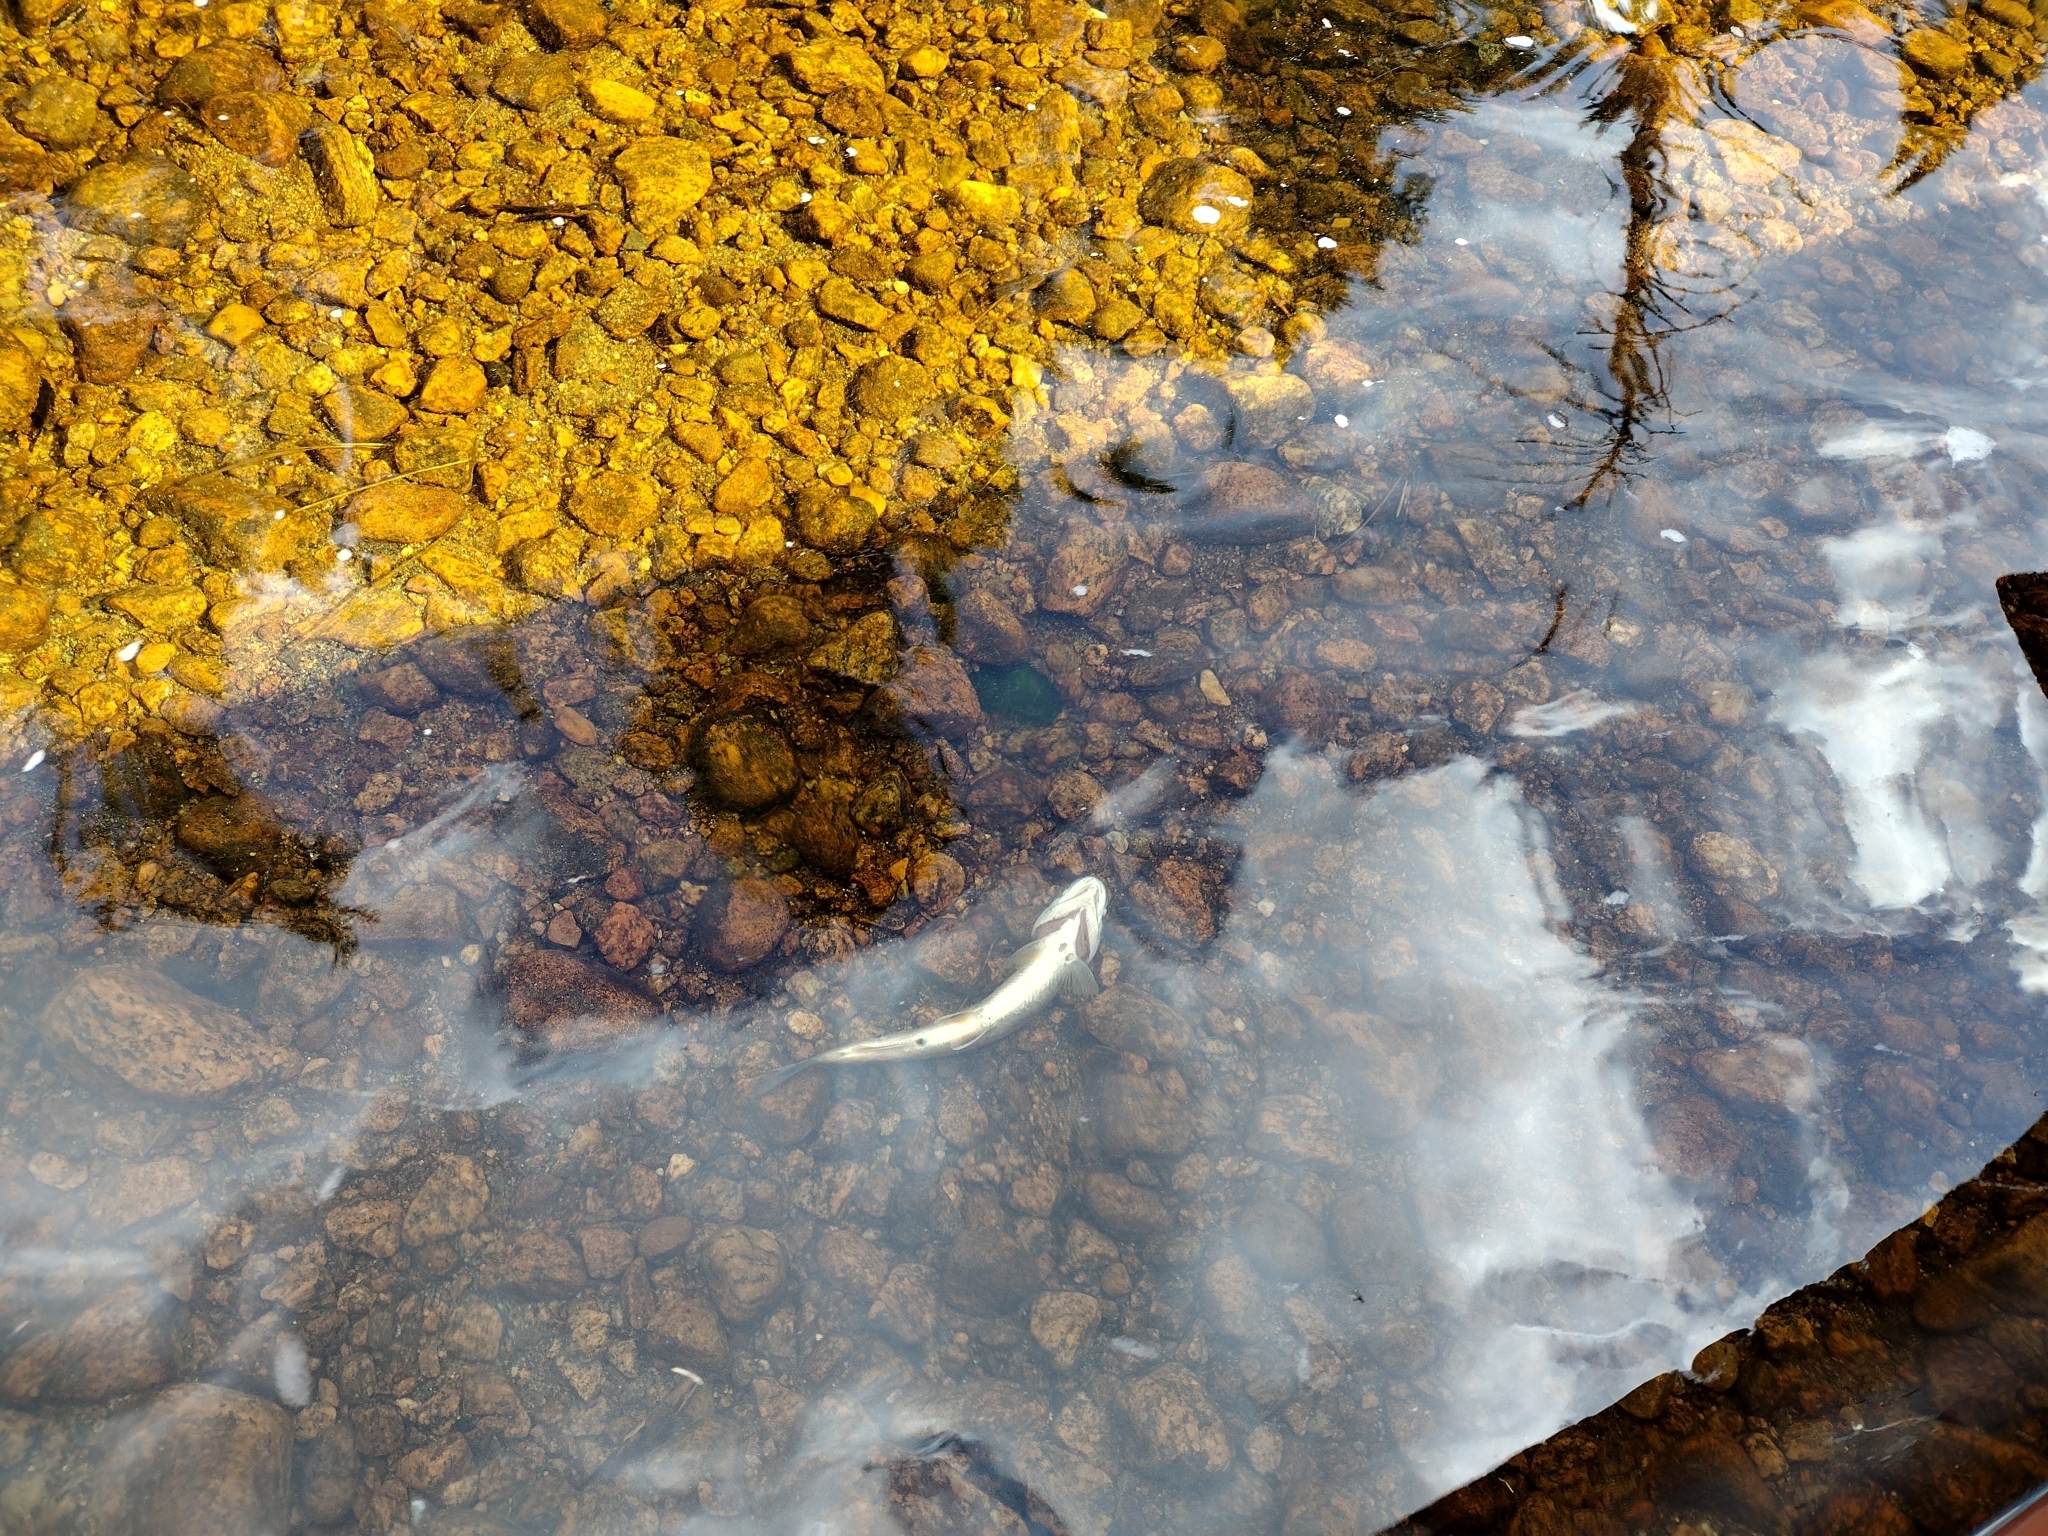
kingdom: Animalia
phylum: Chordata
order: Salmoniformes
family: Salmonidae
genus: Salvelinus
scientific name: Salvelinus fontinalis
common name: Brook trout
